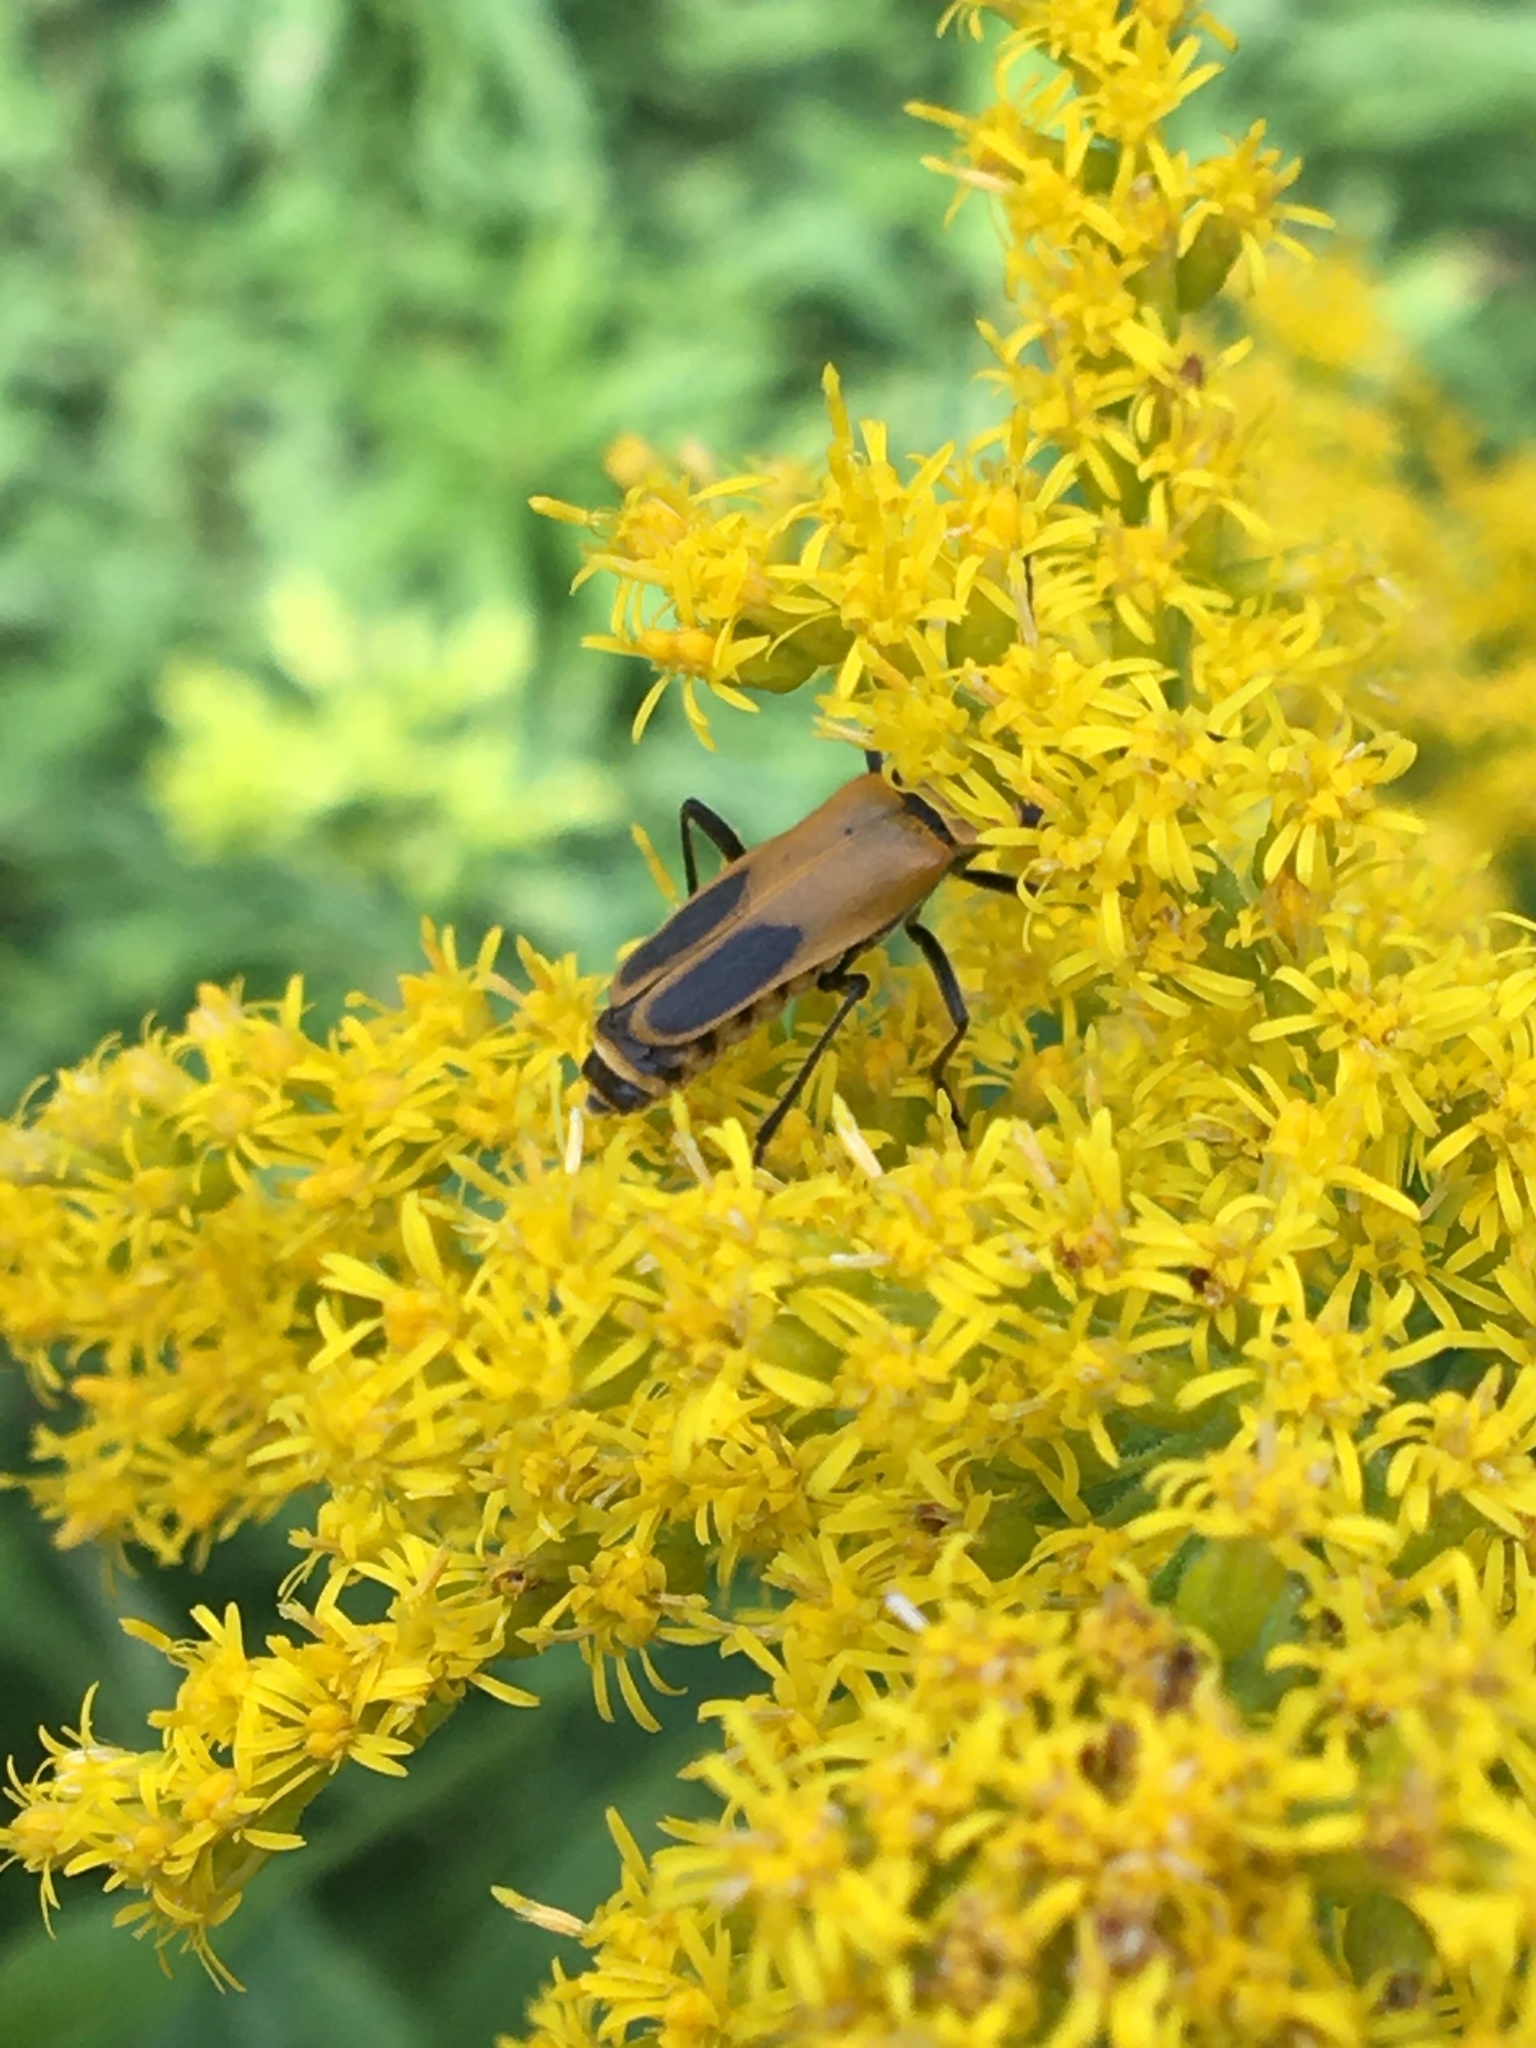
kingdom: Animalia
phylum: Arthropoda
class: Insecta
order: Coleoptera
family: Cantharidae
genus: Chauliognathus
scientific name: Chauliognathus pensylvanicus
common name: Goldenrod soldier beetle
